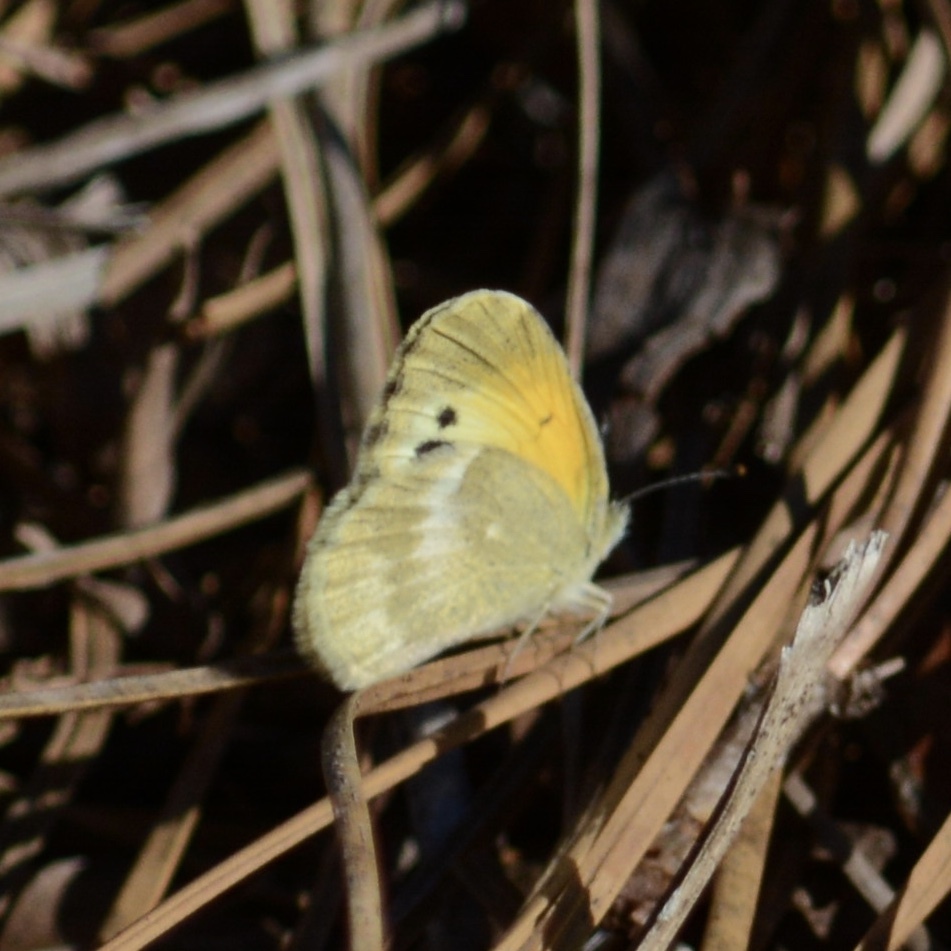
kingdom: Animalia
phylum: Arthropoda
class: Insecta
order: Lepidoptera
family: Pieridae
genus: Nathalis
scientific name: Nathalis iole
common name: Dainty sulphur
